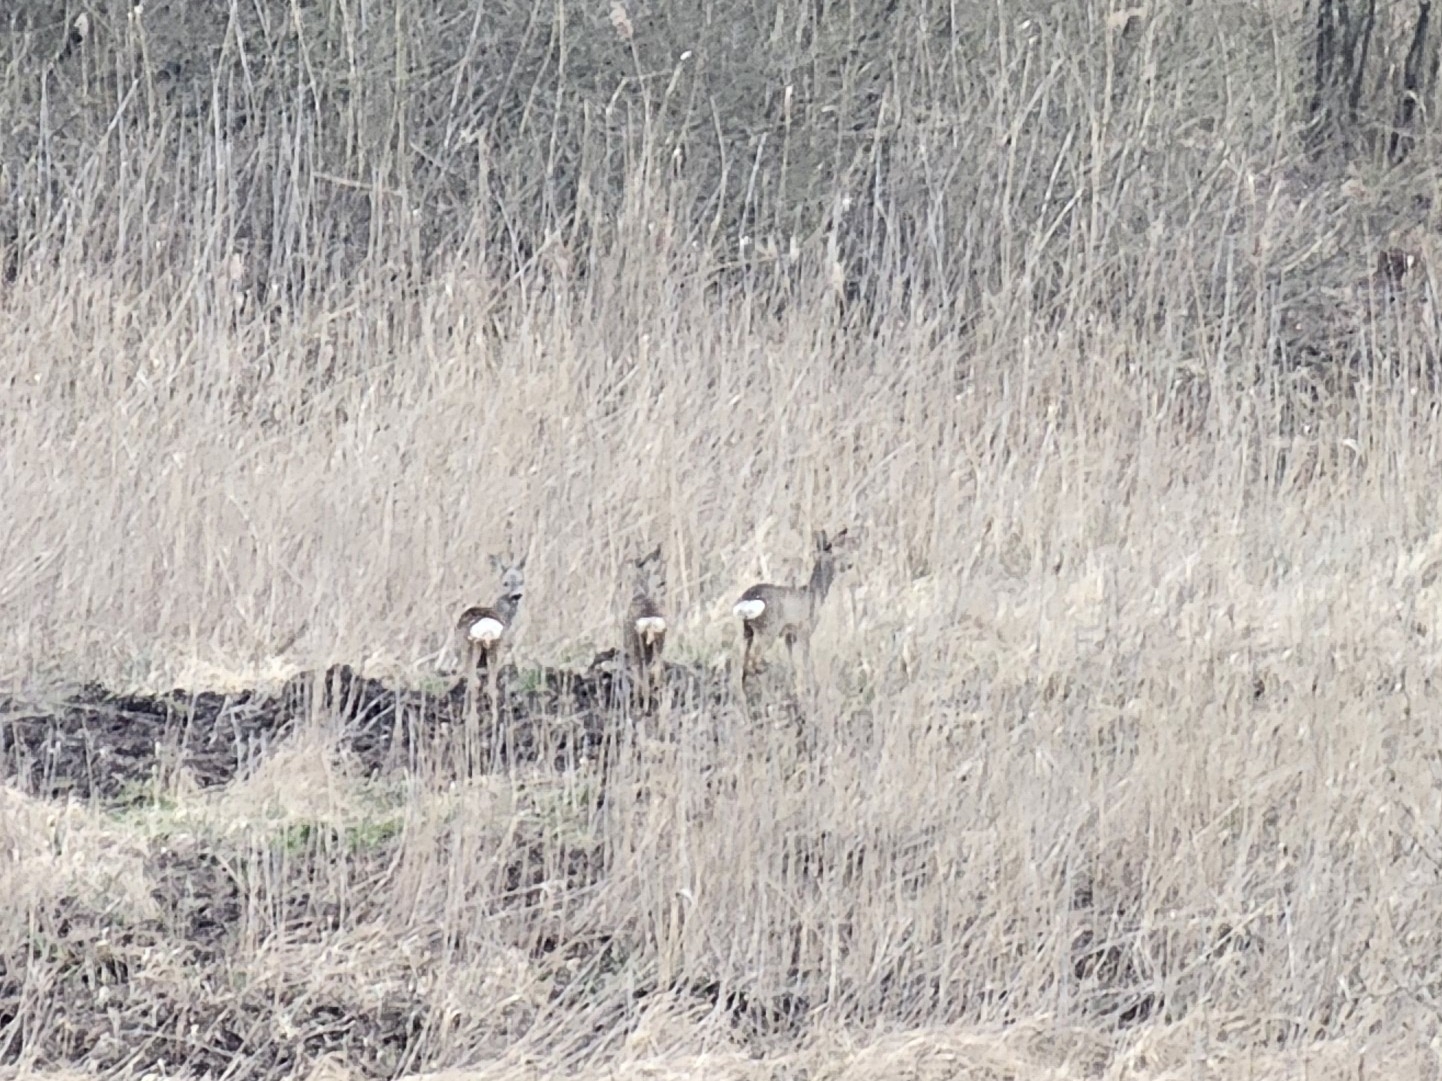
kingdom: Animalia
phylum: Chordata
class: Mammalia
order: Artiodactyla
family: Cervidae
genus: Capreolus
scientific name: Capreolus capreolus
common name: Western roe deer
